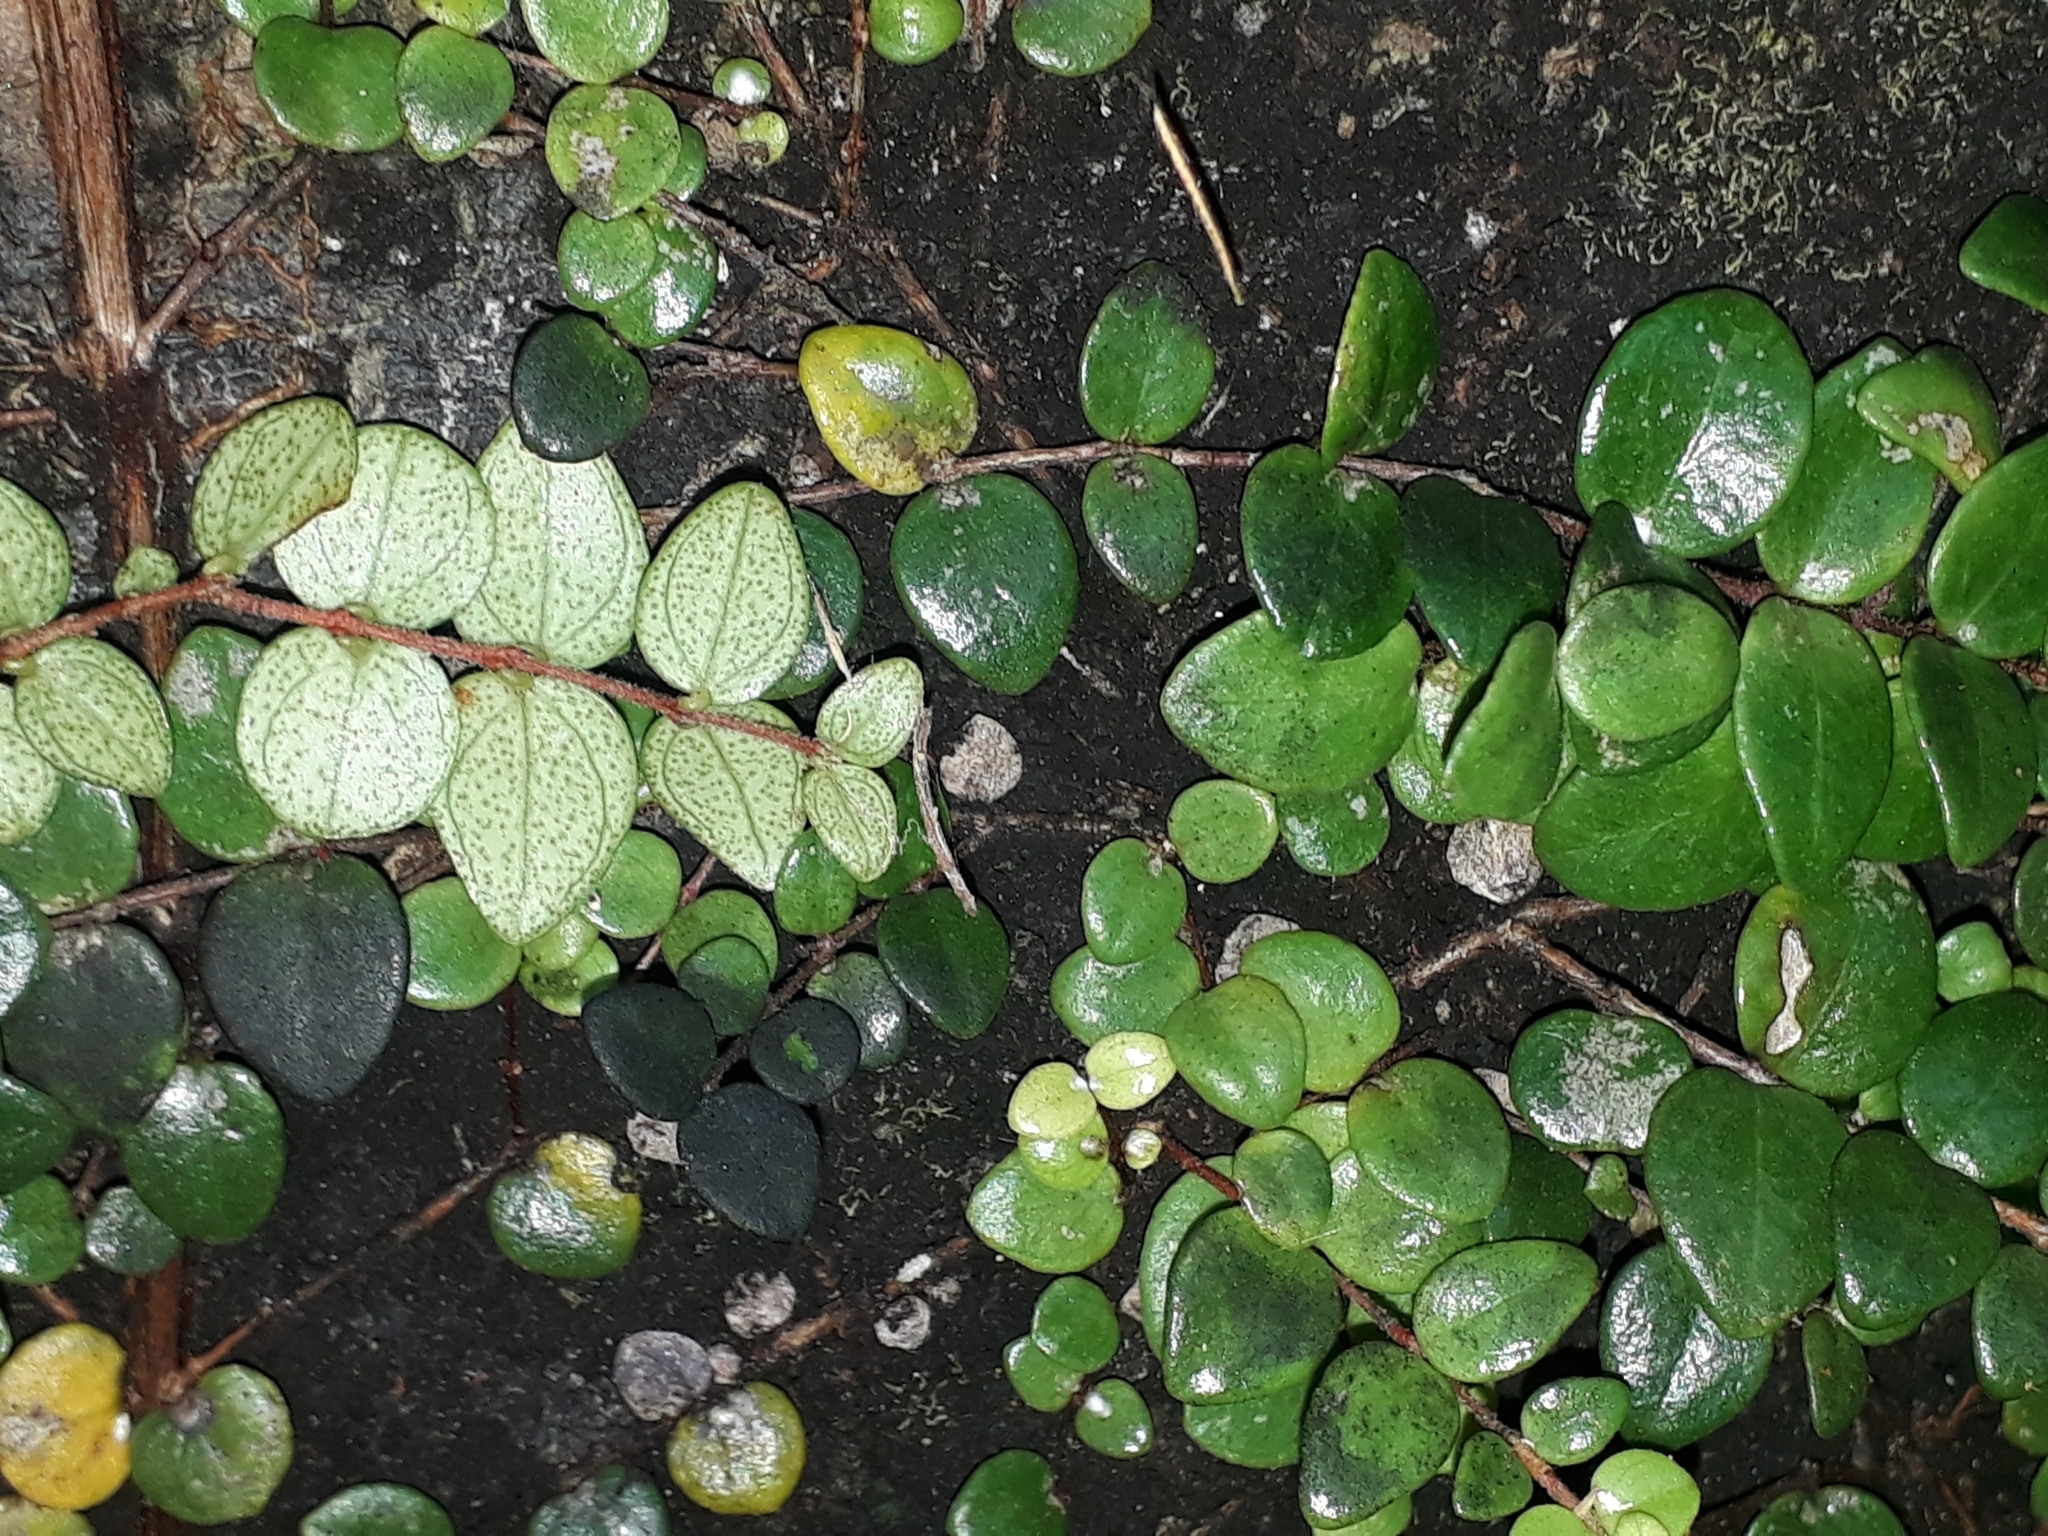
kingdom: Plantae
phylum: Tracheophyta
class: Magnoliopsida
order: Myrtales
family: Myrtaceae
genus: Metrosideros
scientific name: Metrosideros perforata
